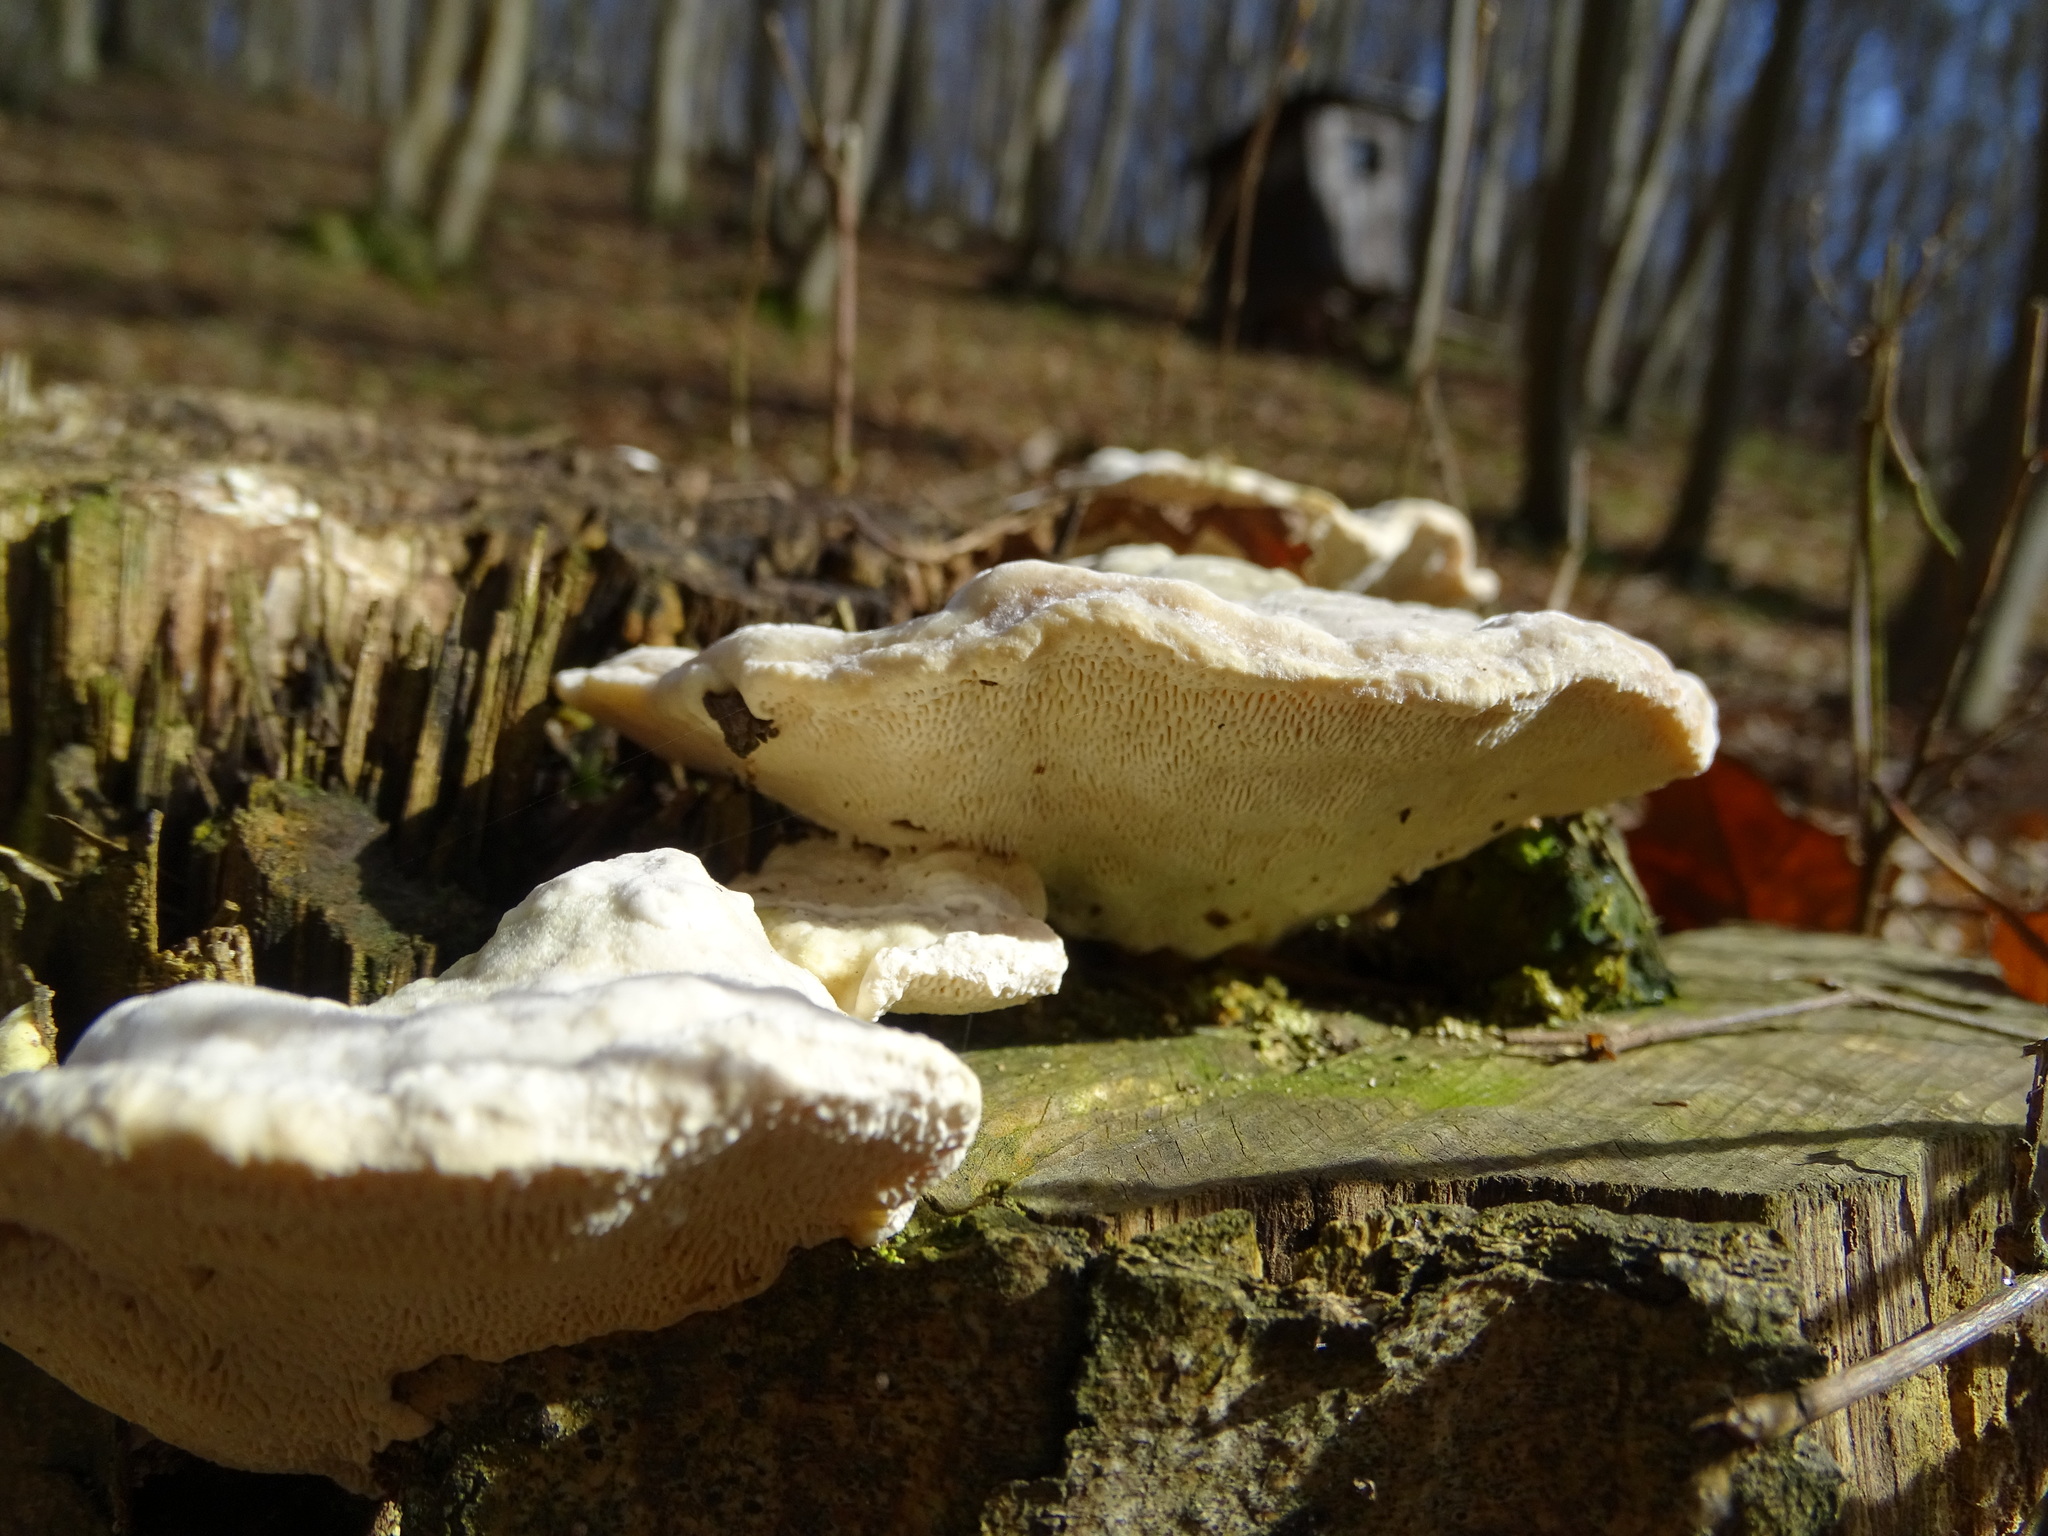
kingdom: Fungi
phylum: Basidiomycota
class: Agaricomycetes
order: Polyporales
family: Polyporaceae
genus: Trametes
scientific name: Trametes gibbosa
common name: Lumpy bracket
